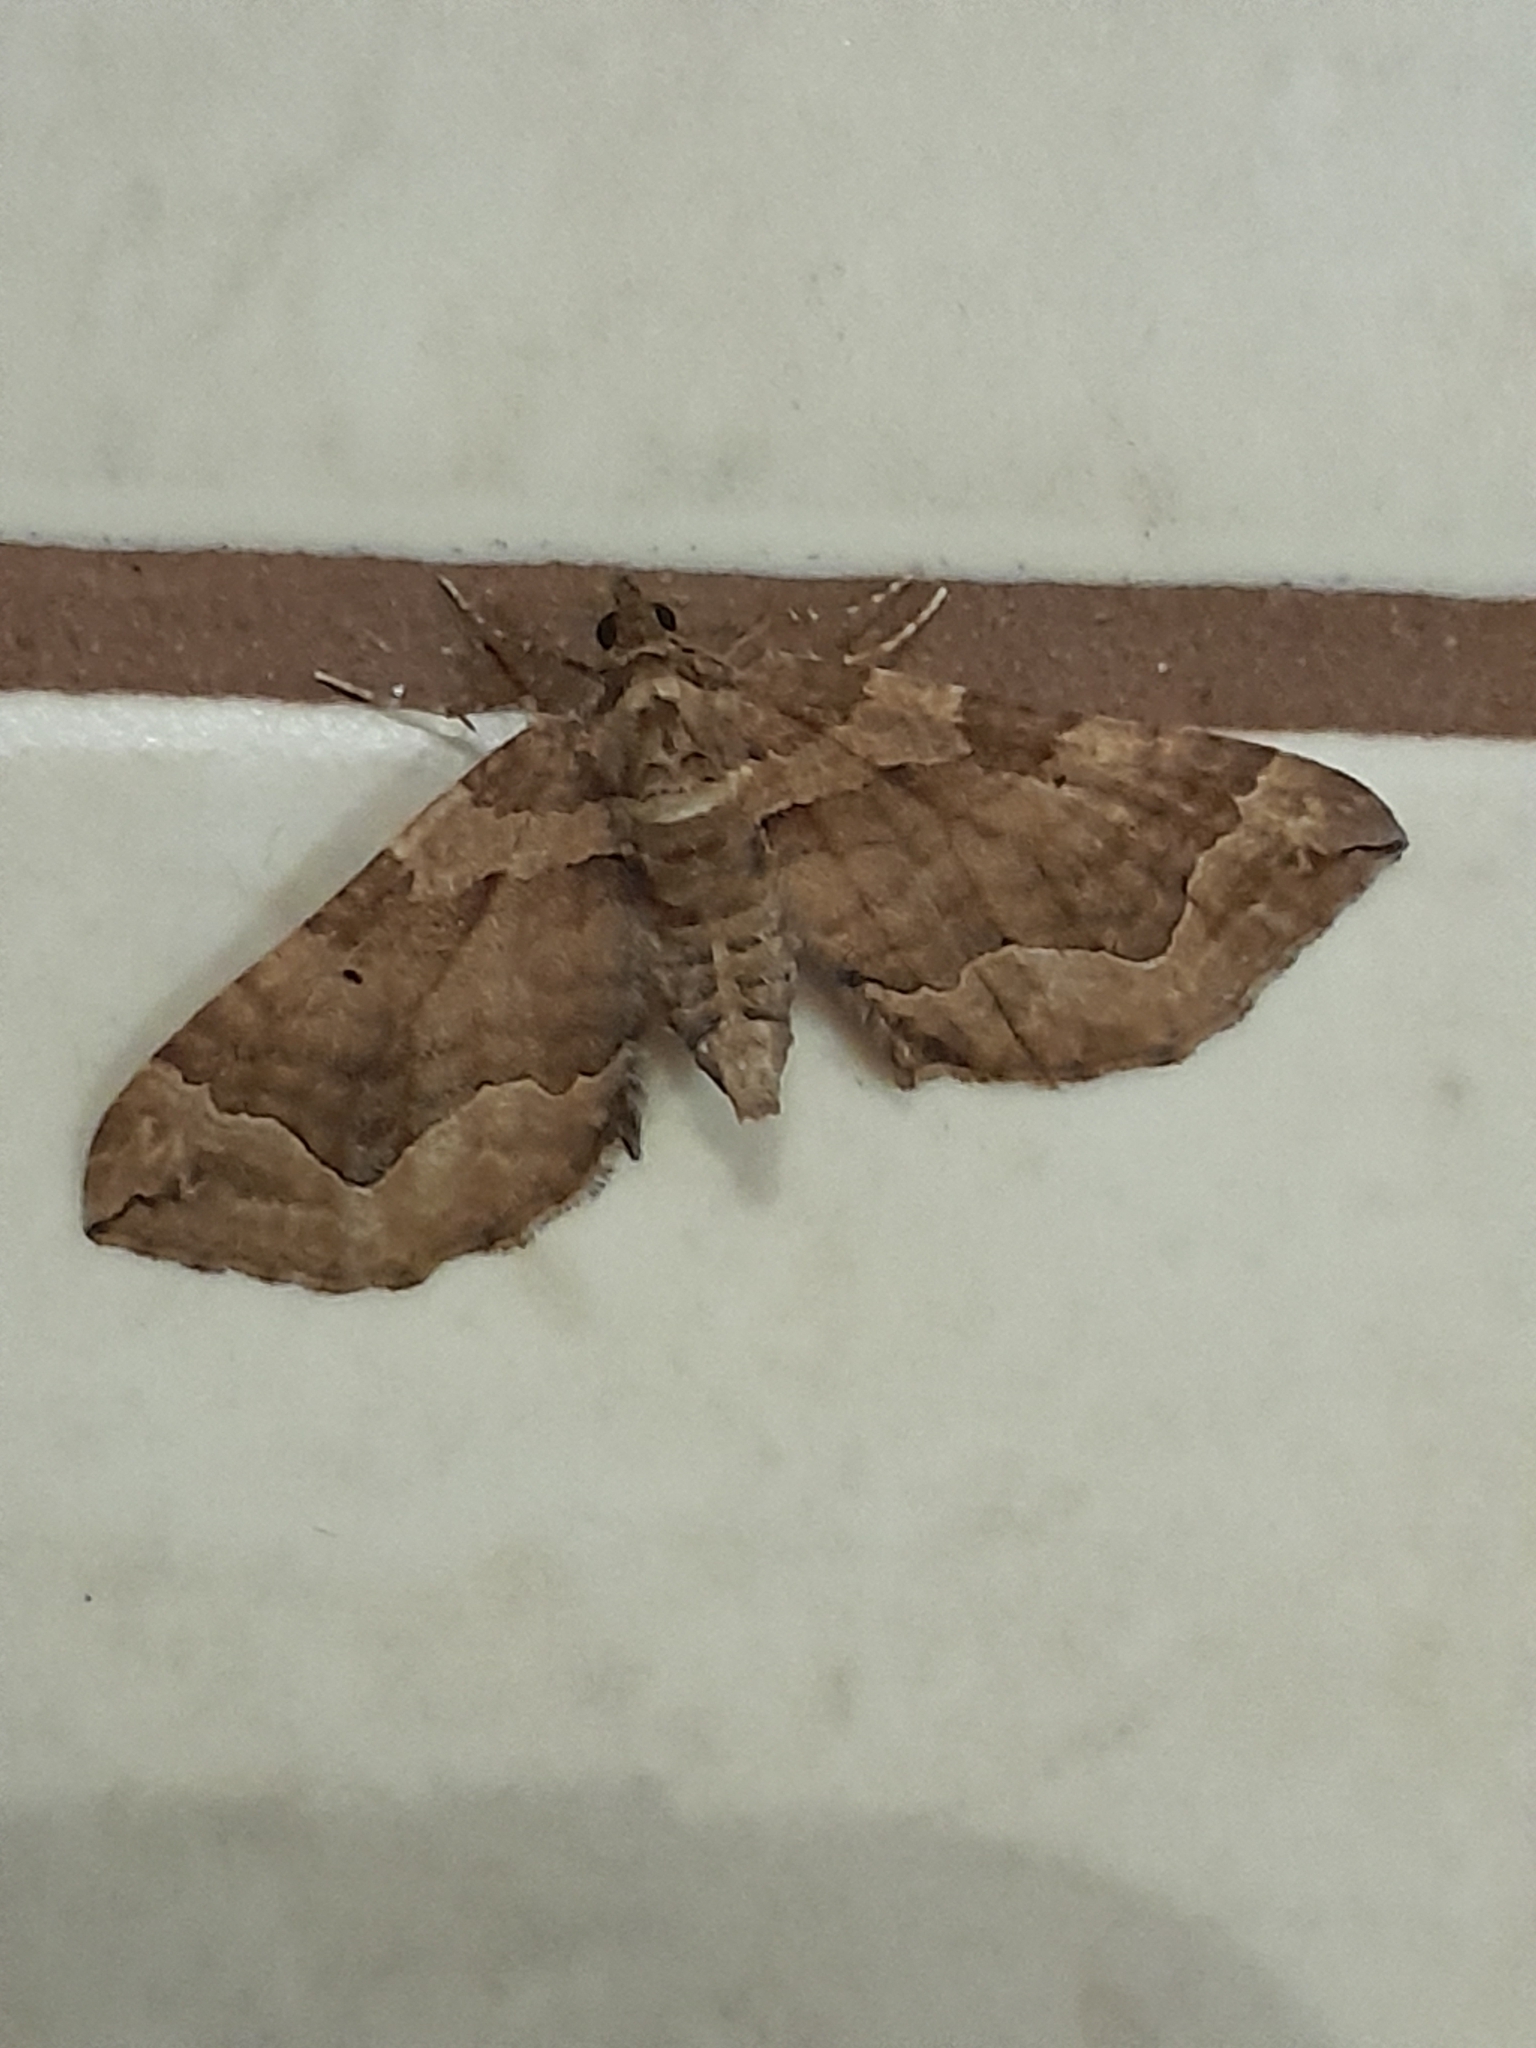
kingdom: Animalia
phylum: Arthropoda
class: Insecta
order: Lepidoptera
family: Geometridae
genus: Pelurga
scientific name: Pelurga comitata
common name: Dark spinach
